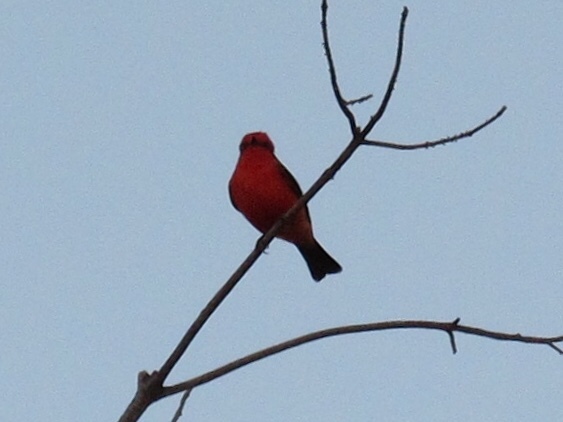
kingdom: Animalia
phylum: Chordata
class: Aves
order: Passeriformes
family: Tyrannidae
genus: Pyrocephalus
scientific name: Pyrocephalus rubinus
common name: Vermilion flycatcher
